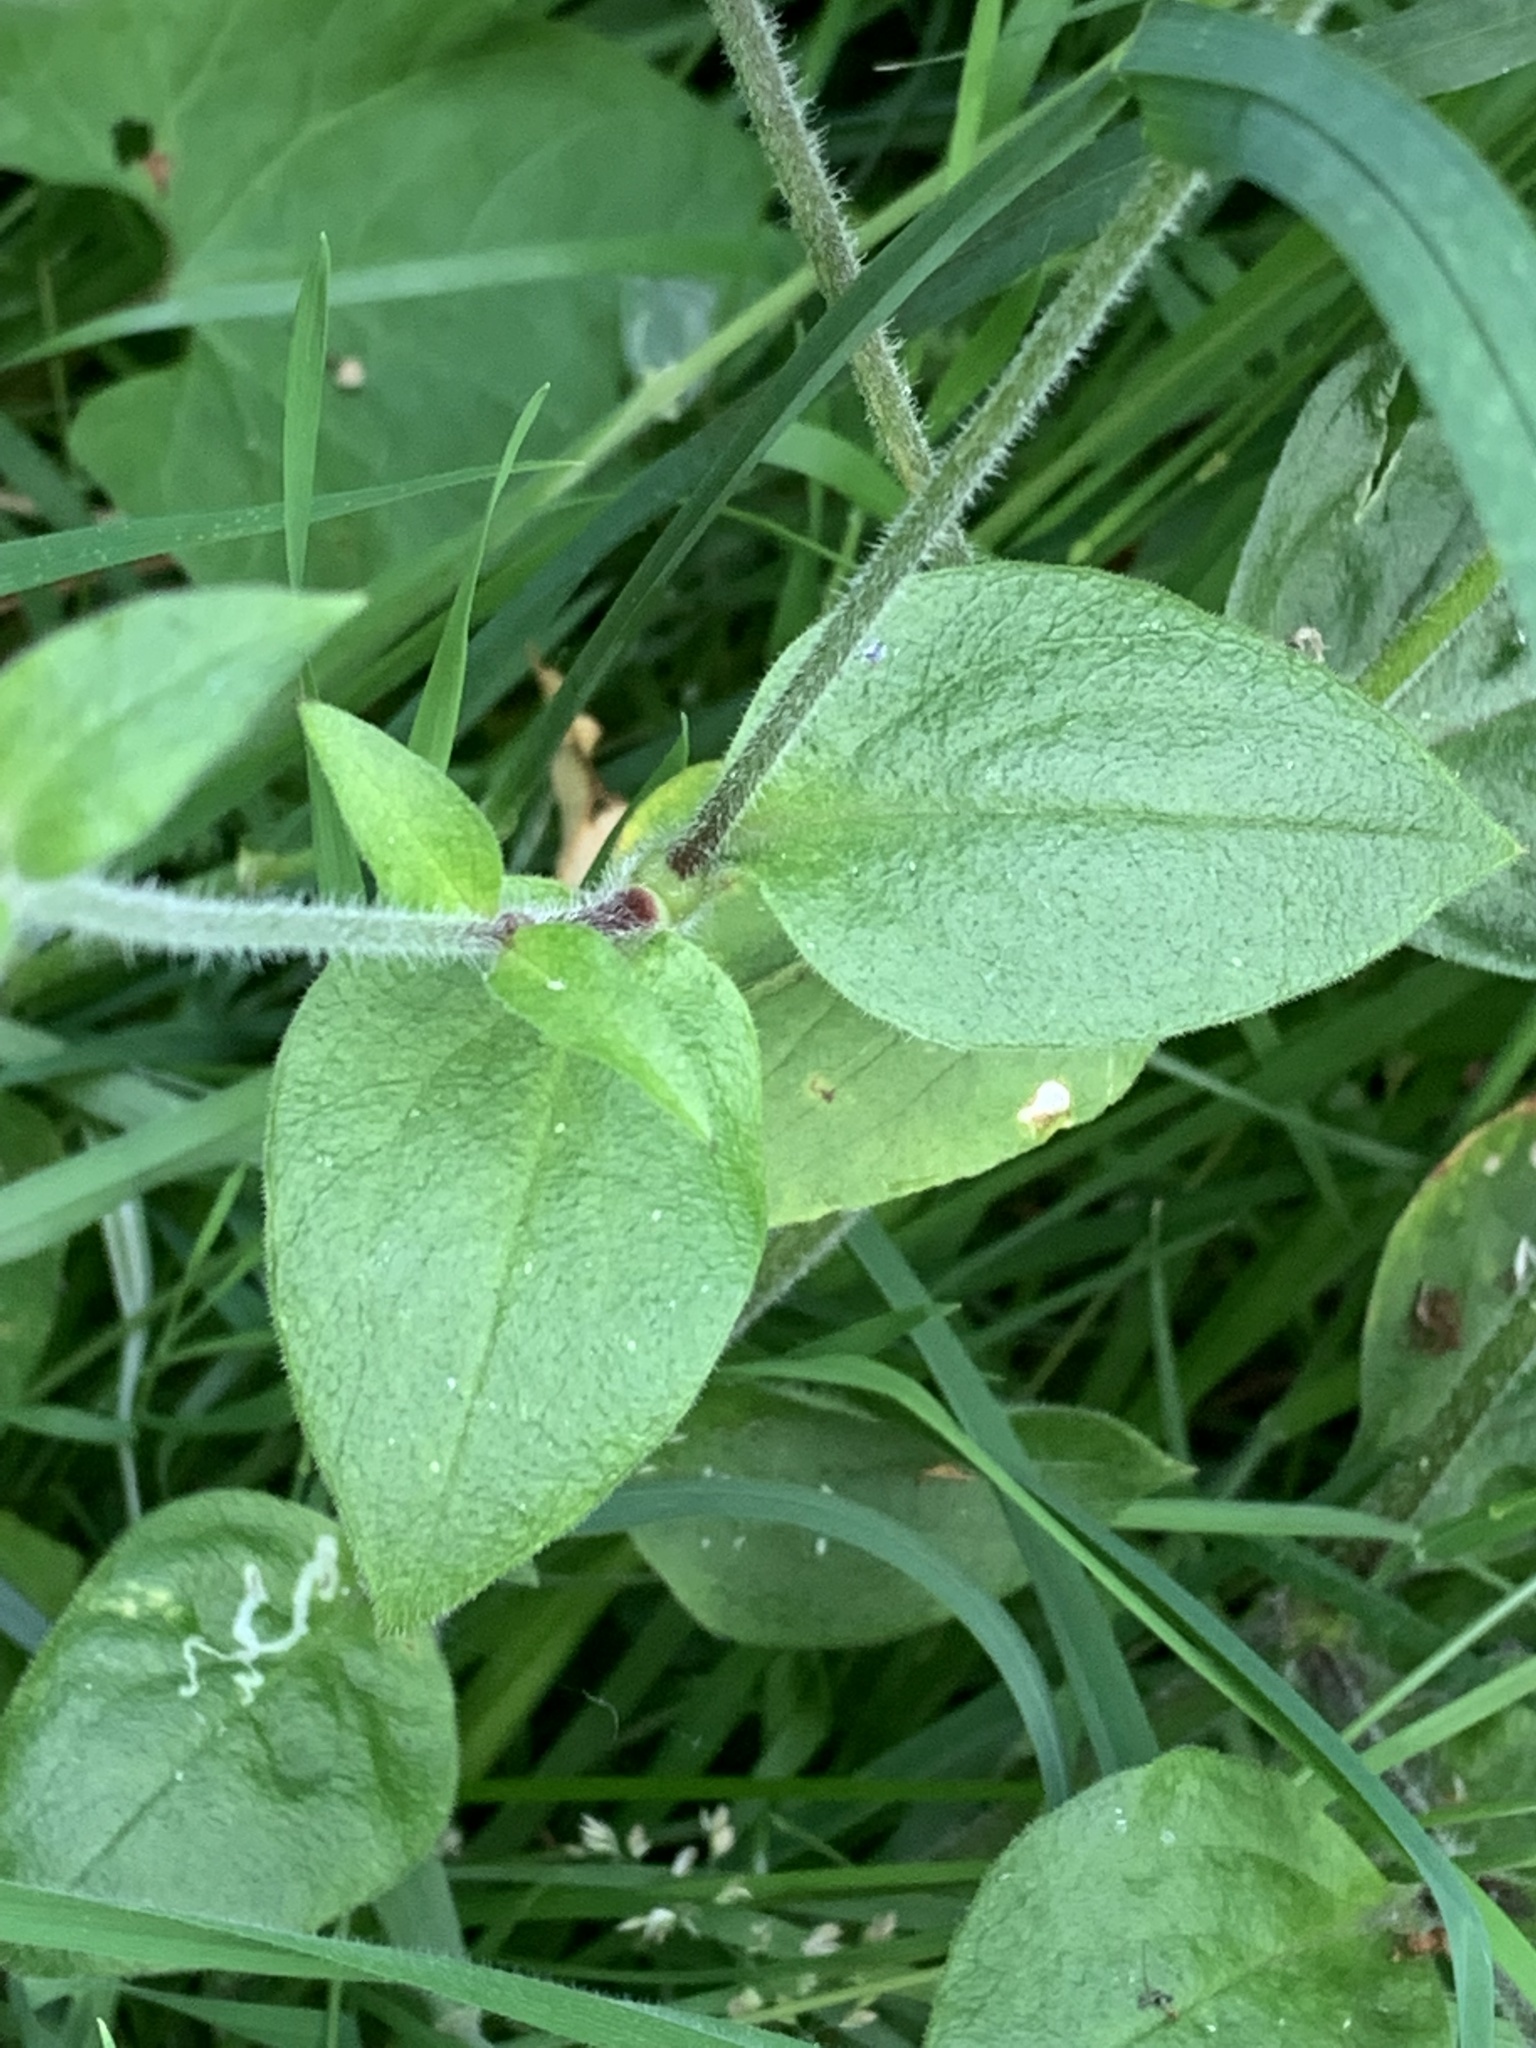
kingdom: Plantae
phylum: Tracheophyta
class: Magnoliopsida
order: Caryophyllales
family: Caryophyllaceae
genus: Silene
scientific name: Silene dioica
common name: Red campion
